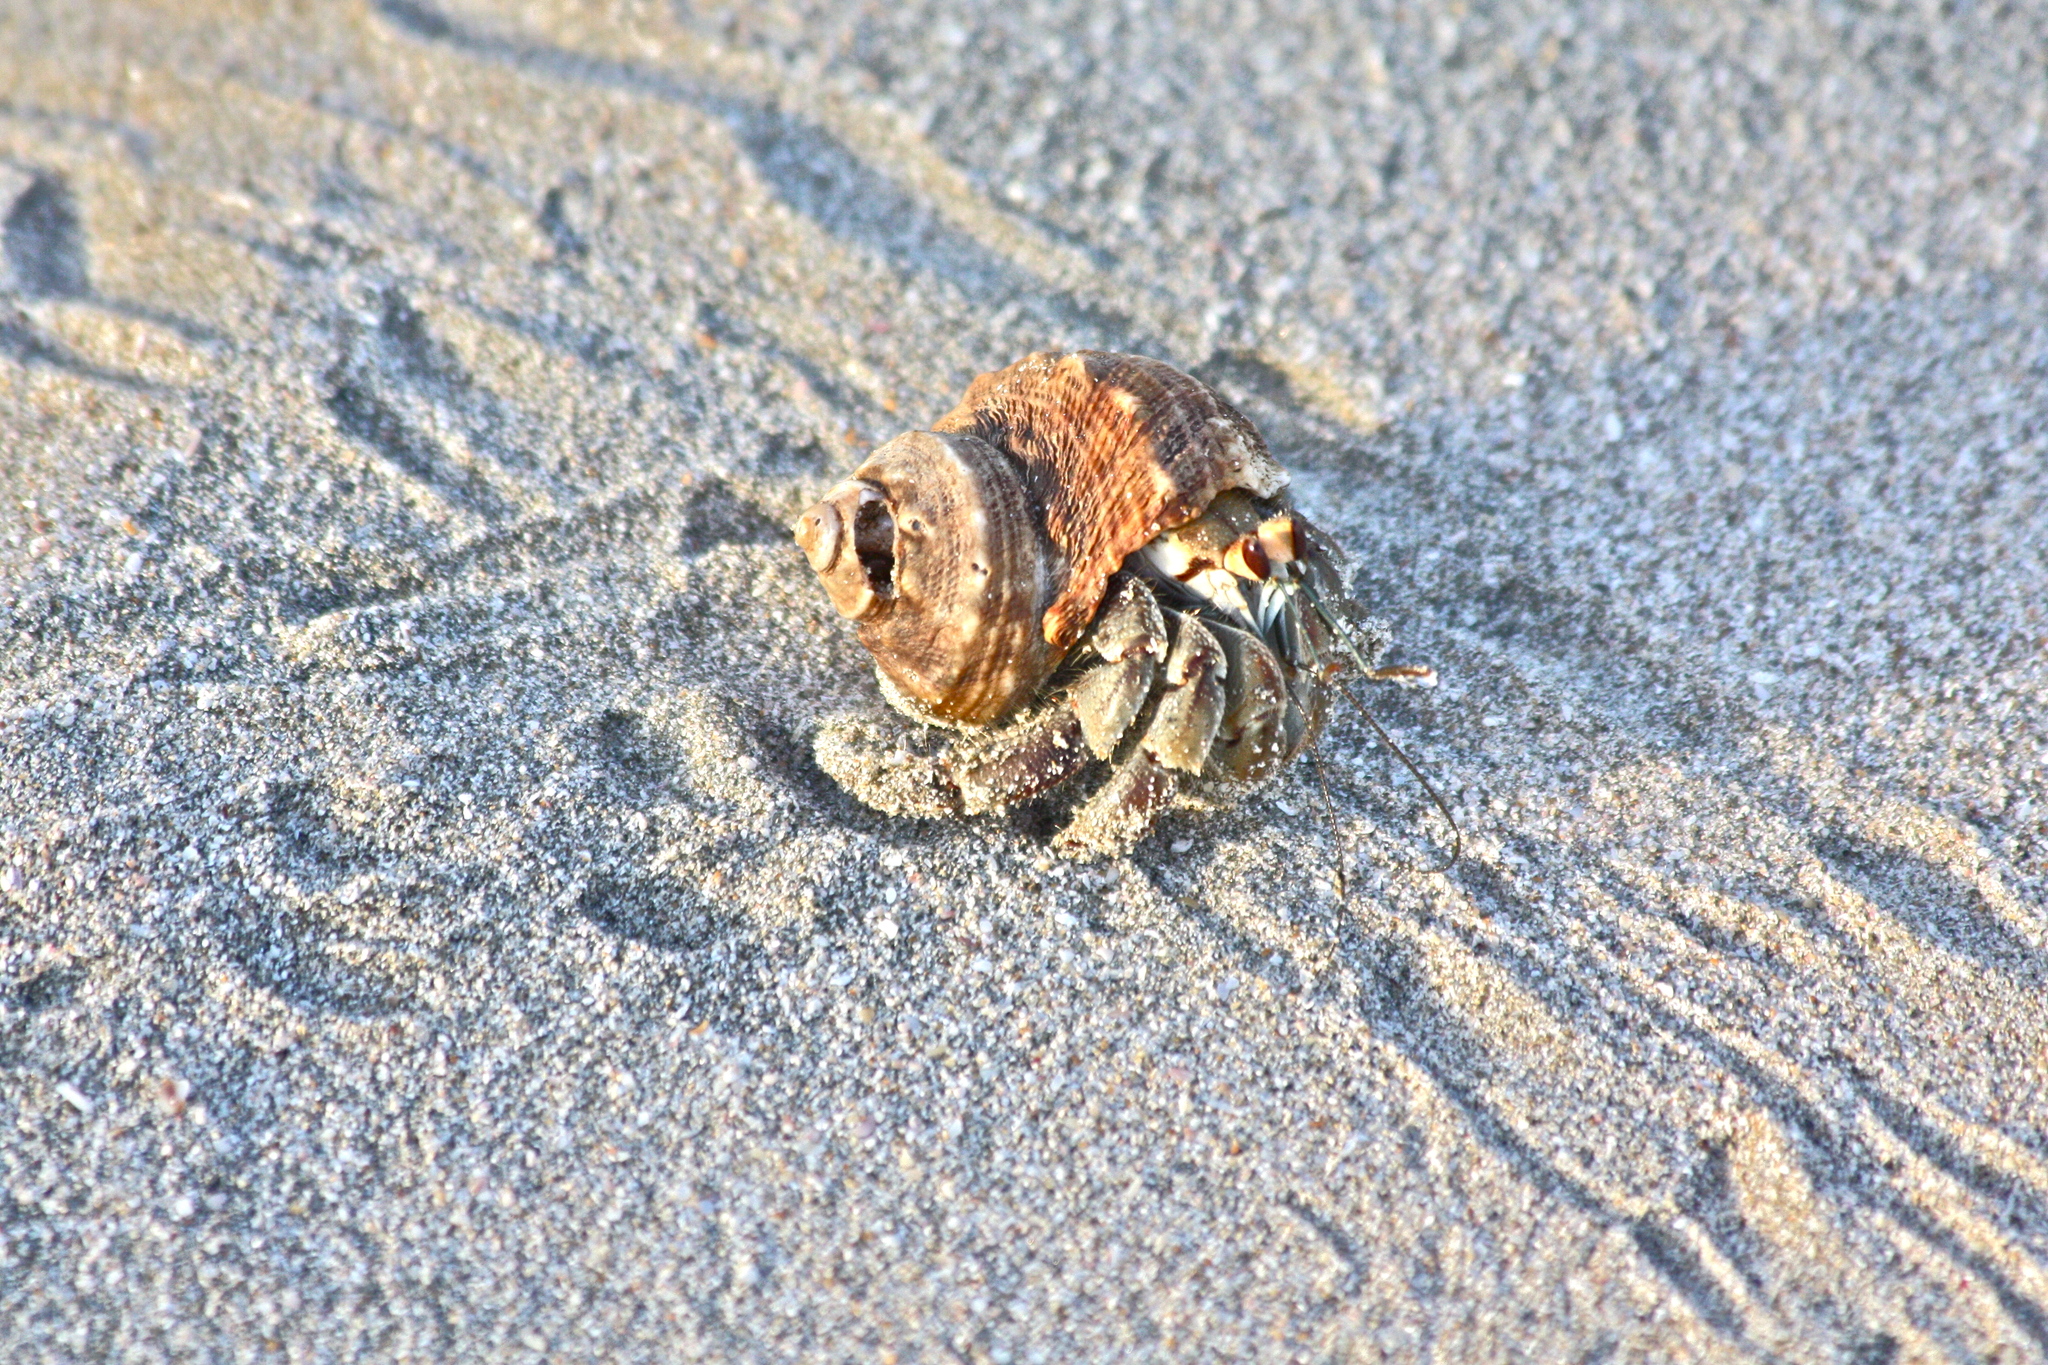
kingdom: Animalia
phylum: Arthropoda
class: Malacostraca
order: Decapoda
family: Coenobitidae
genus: Coenobita
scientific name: Coenobita compressus
